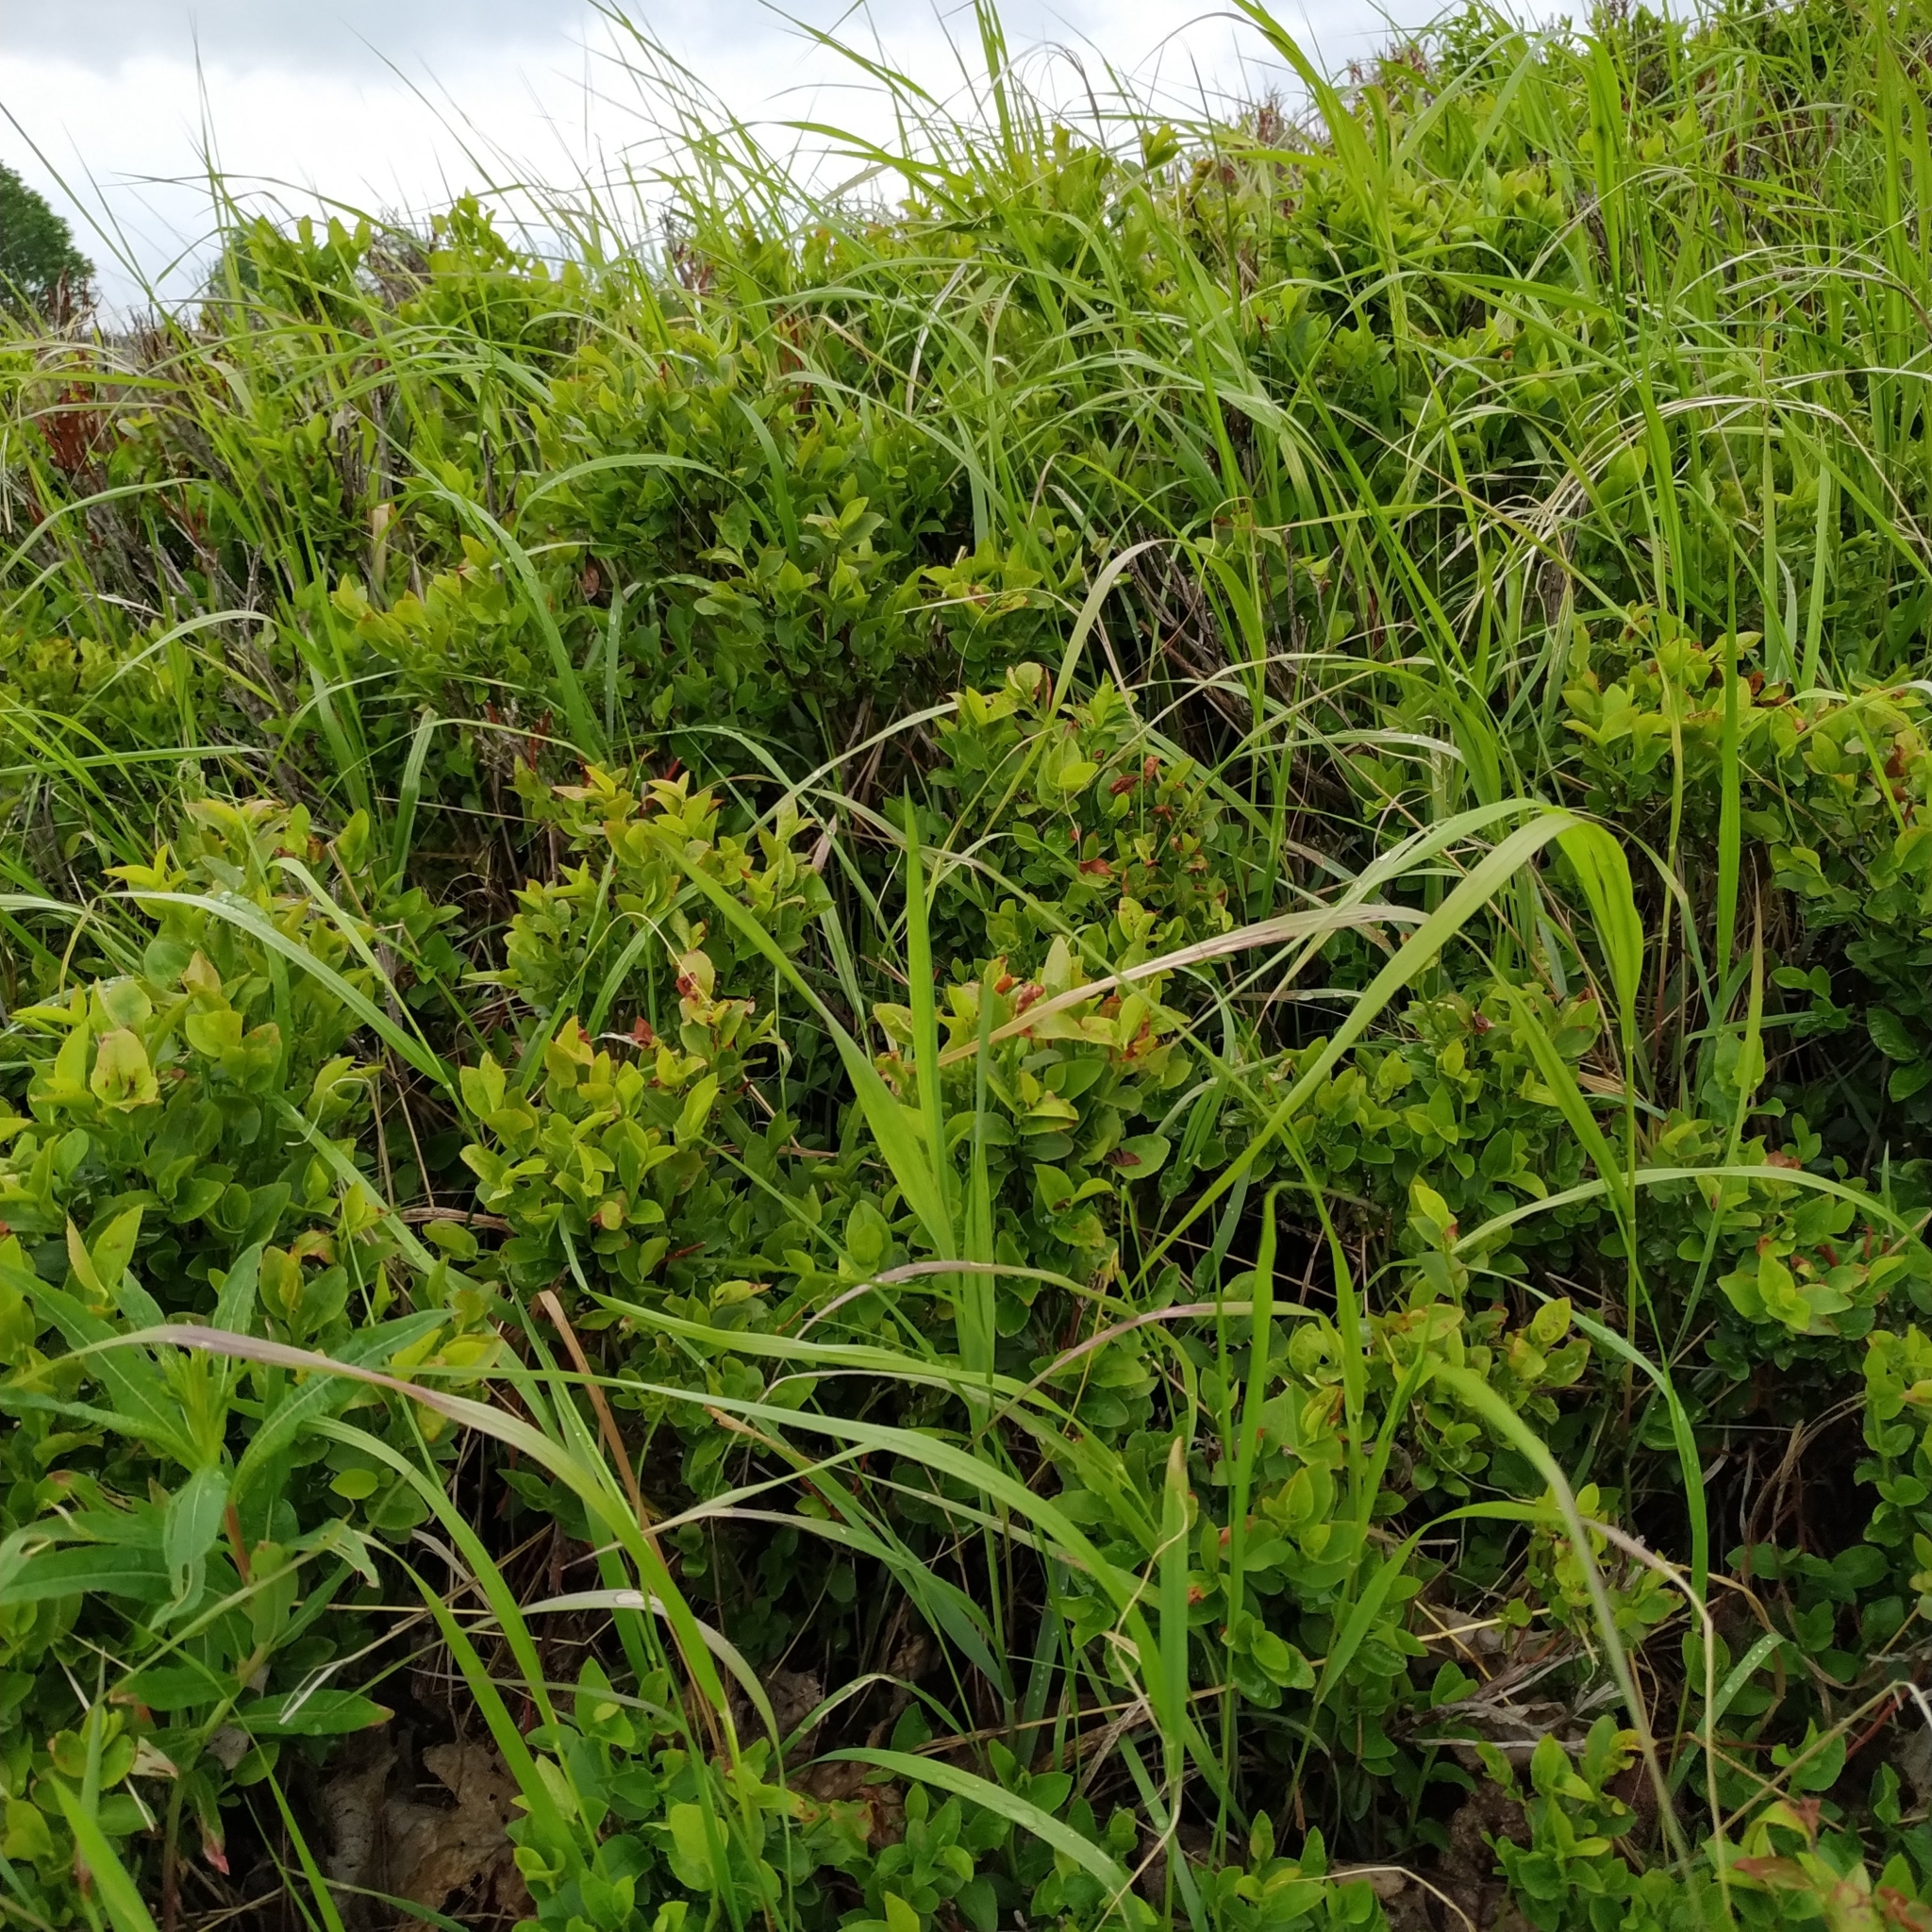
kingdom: Plantae
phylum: Tracheophyta
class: Magnoliopsida
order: Ericales
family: Ericaceae
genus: Vaccinium
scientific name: Vaccinium myrtillus
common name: Bilberry
